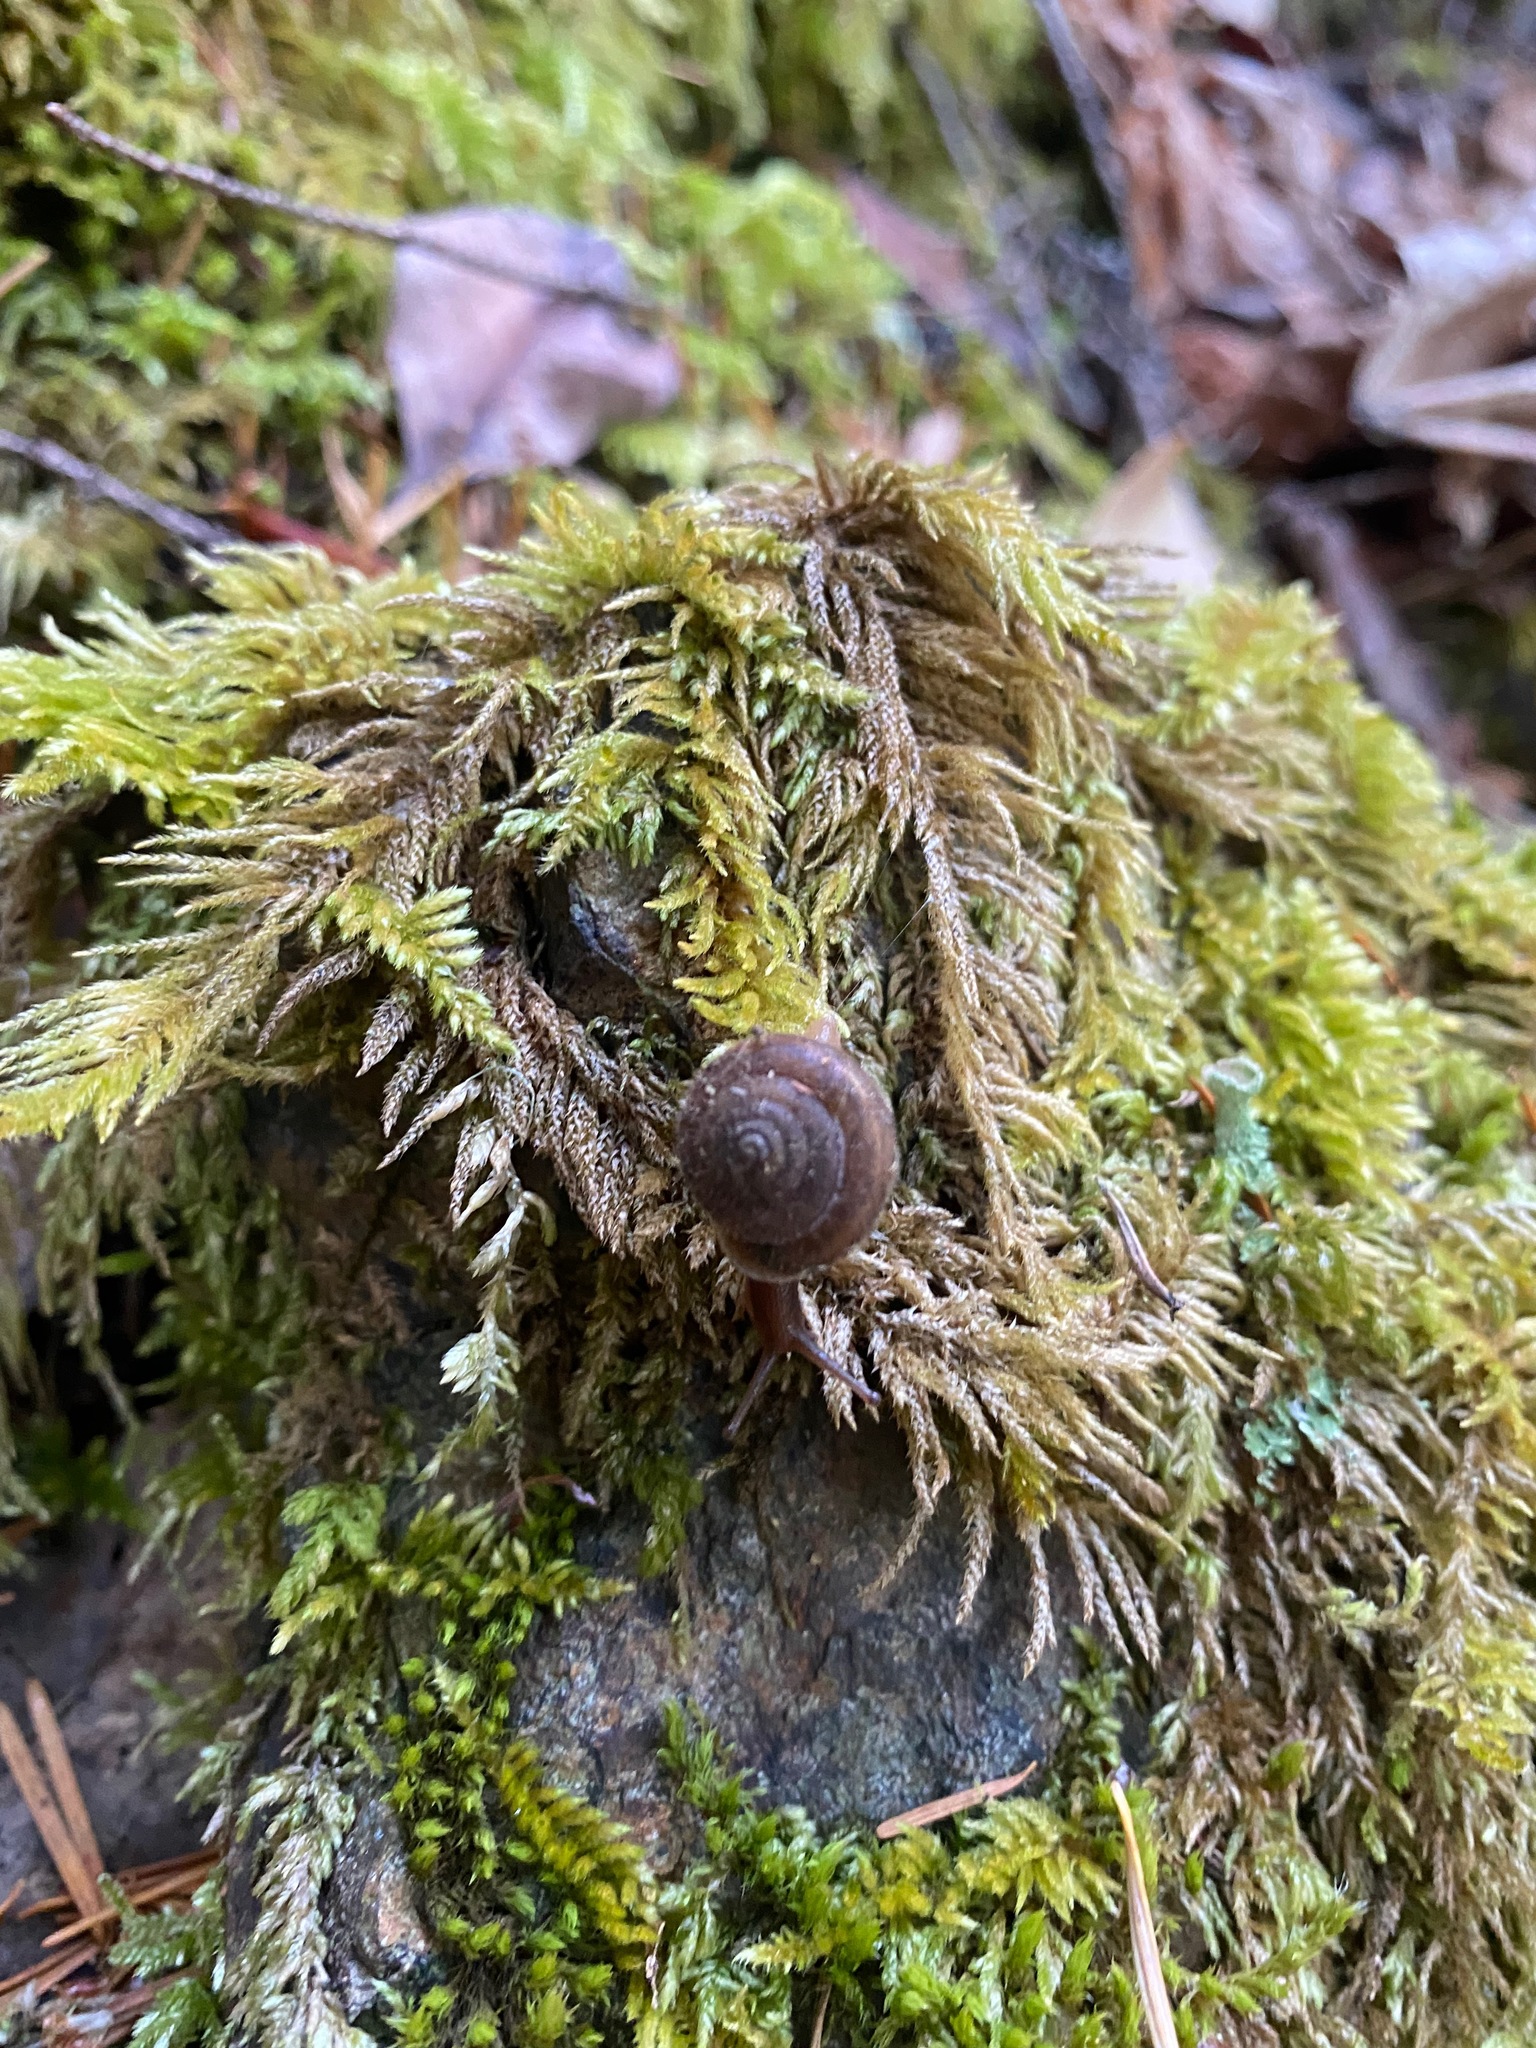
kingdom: Animalia
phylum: Mollusca
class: Gastropoda
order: Stylommatophora
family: Polygyridae
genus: Vespericola
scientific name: Vespericola columbianus
